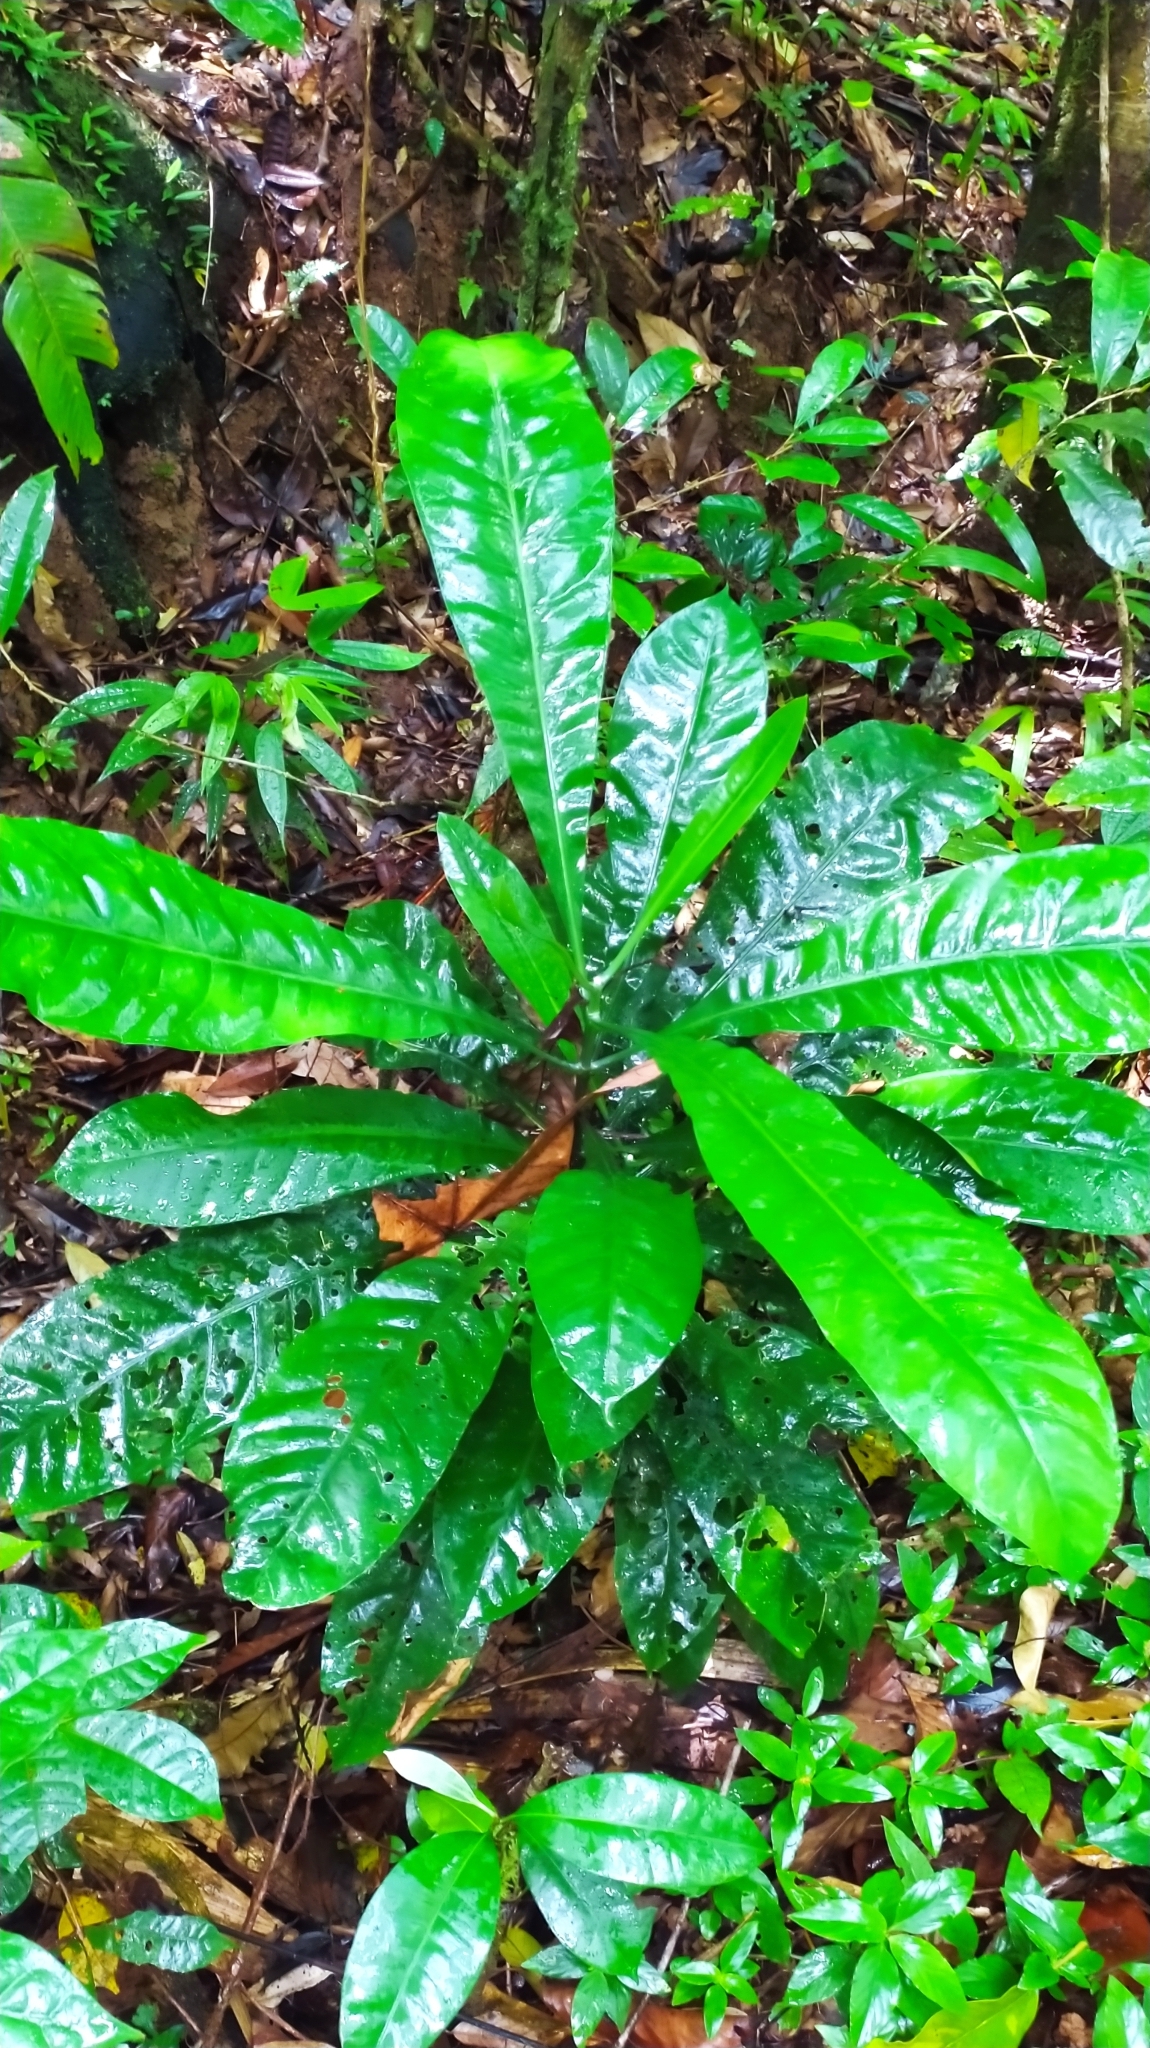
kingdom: Plantae
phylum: Tracheophyta
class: Magnoliopsida
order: Gentianales
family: Gentianaceae
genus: Potalia
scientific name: Potalia amara
